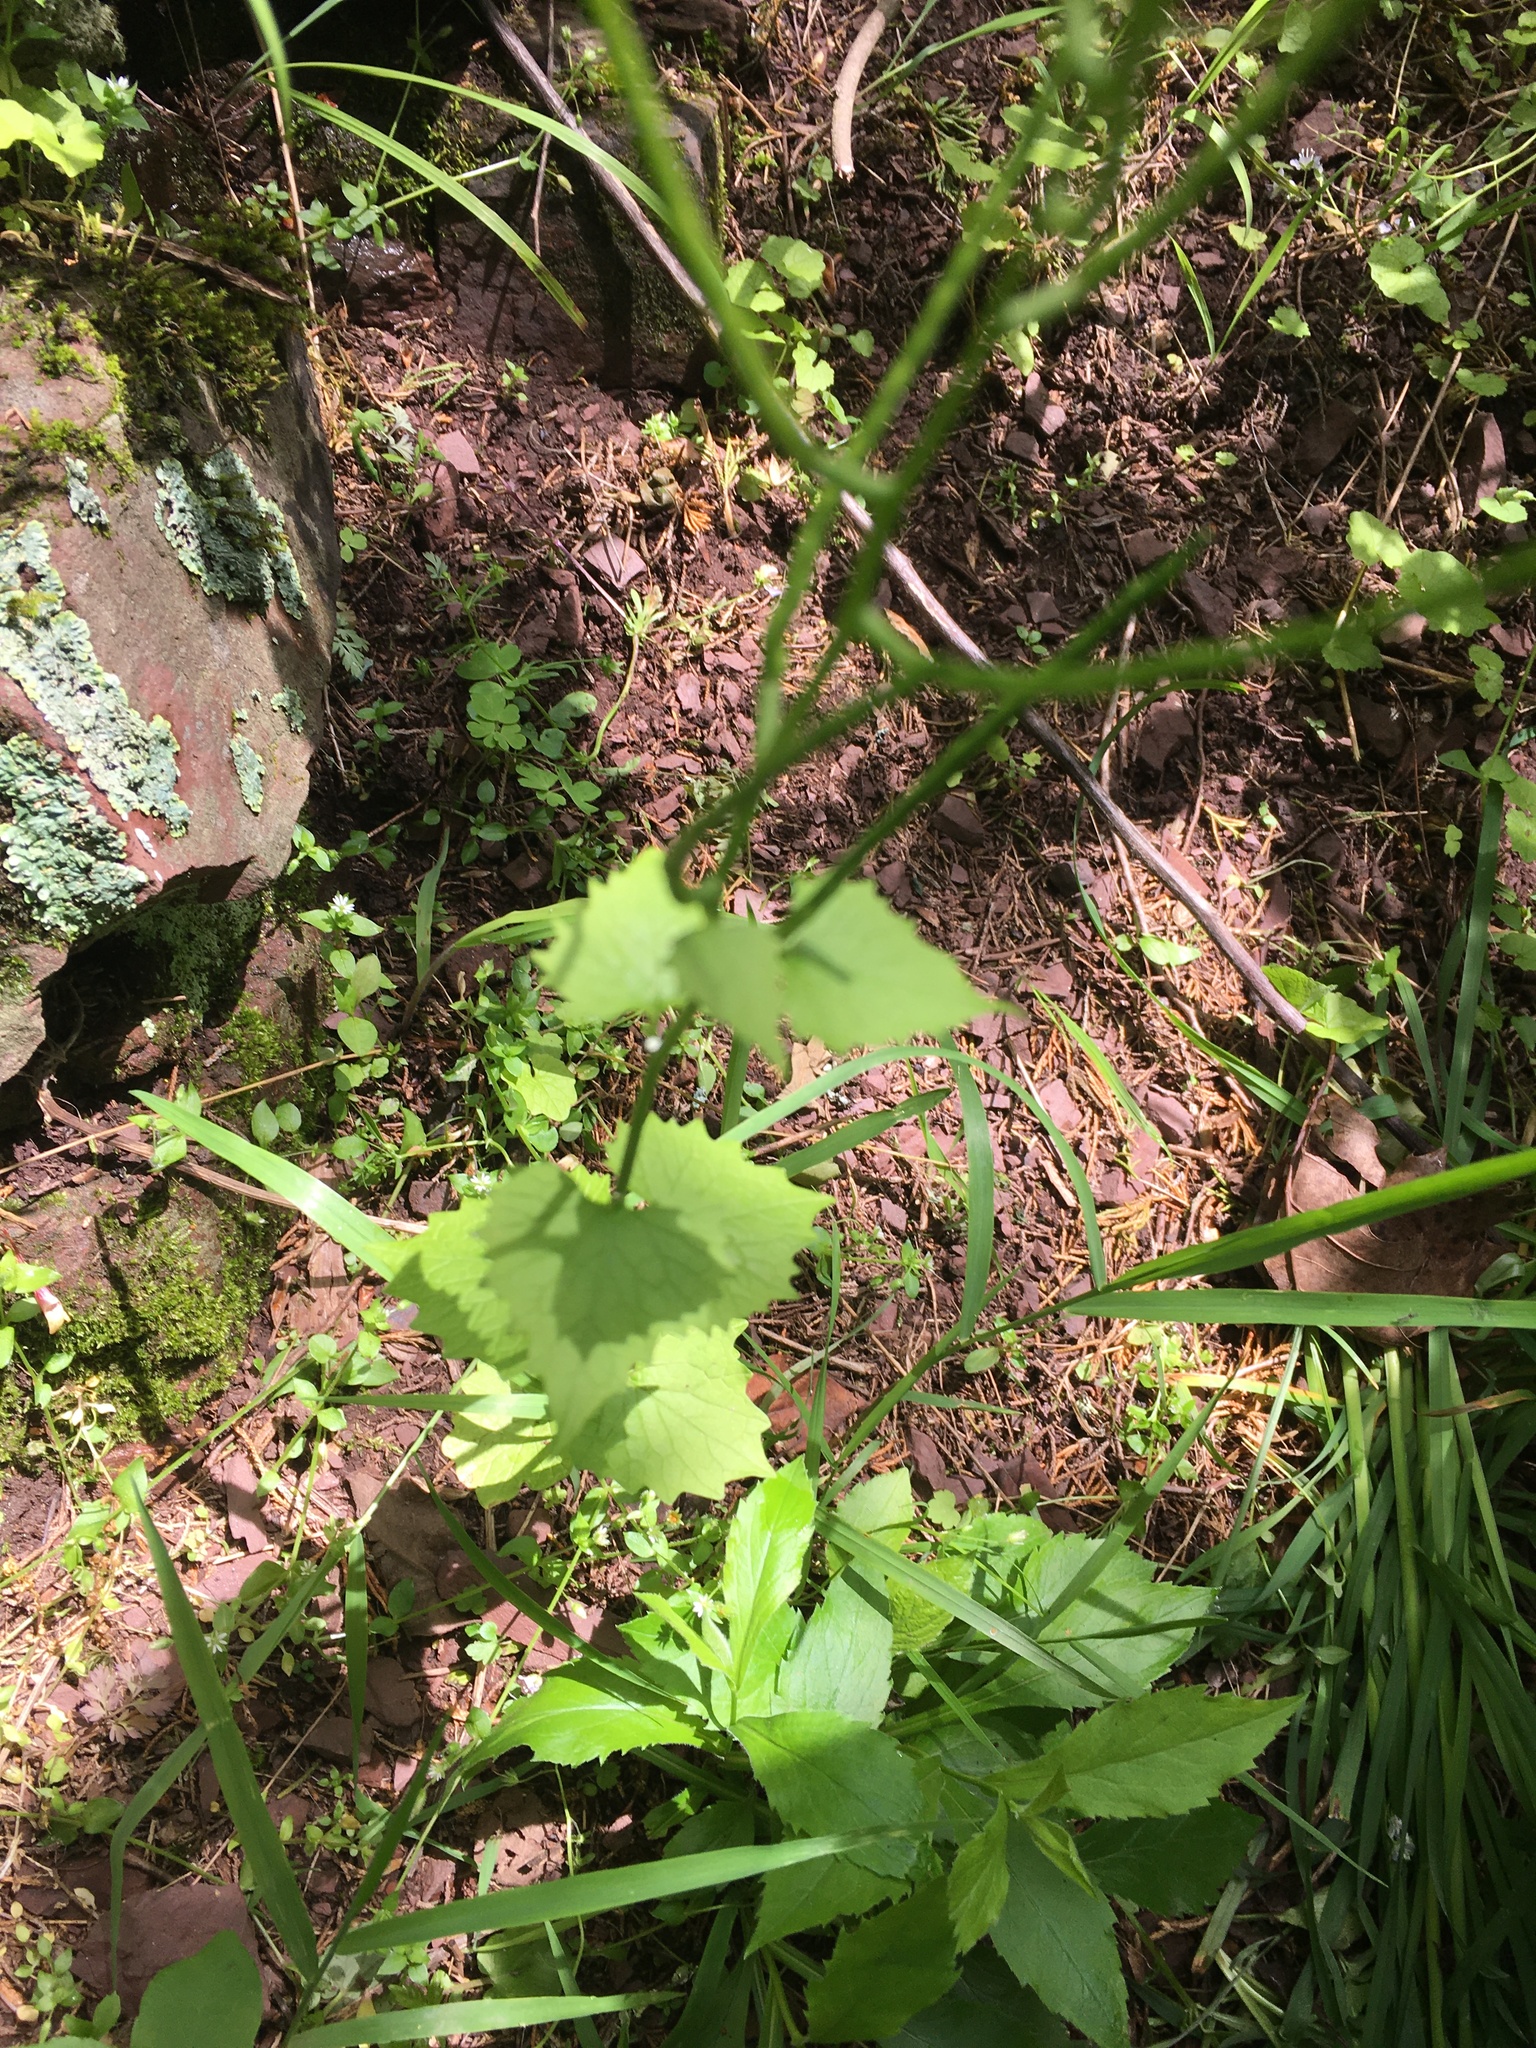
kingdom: Plantae
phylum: Tracheophyta
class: Magnoliopsida
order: Brassicales
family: Brassicaceae
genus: Alliaria
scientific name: Alliaria petiolata
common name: Garlic mustard
